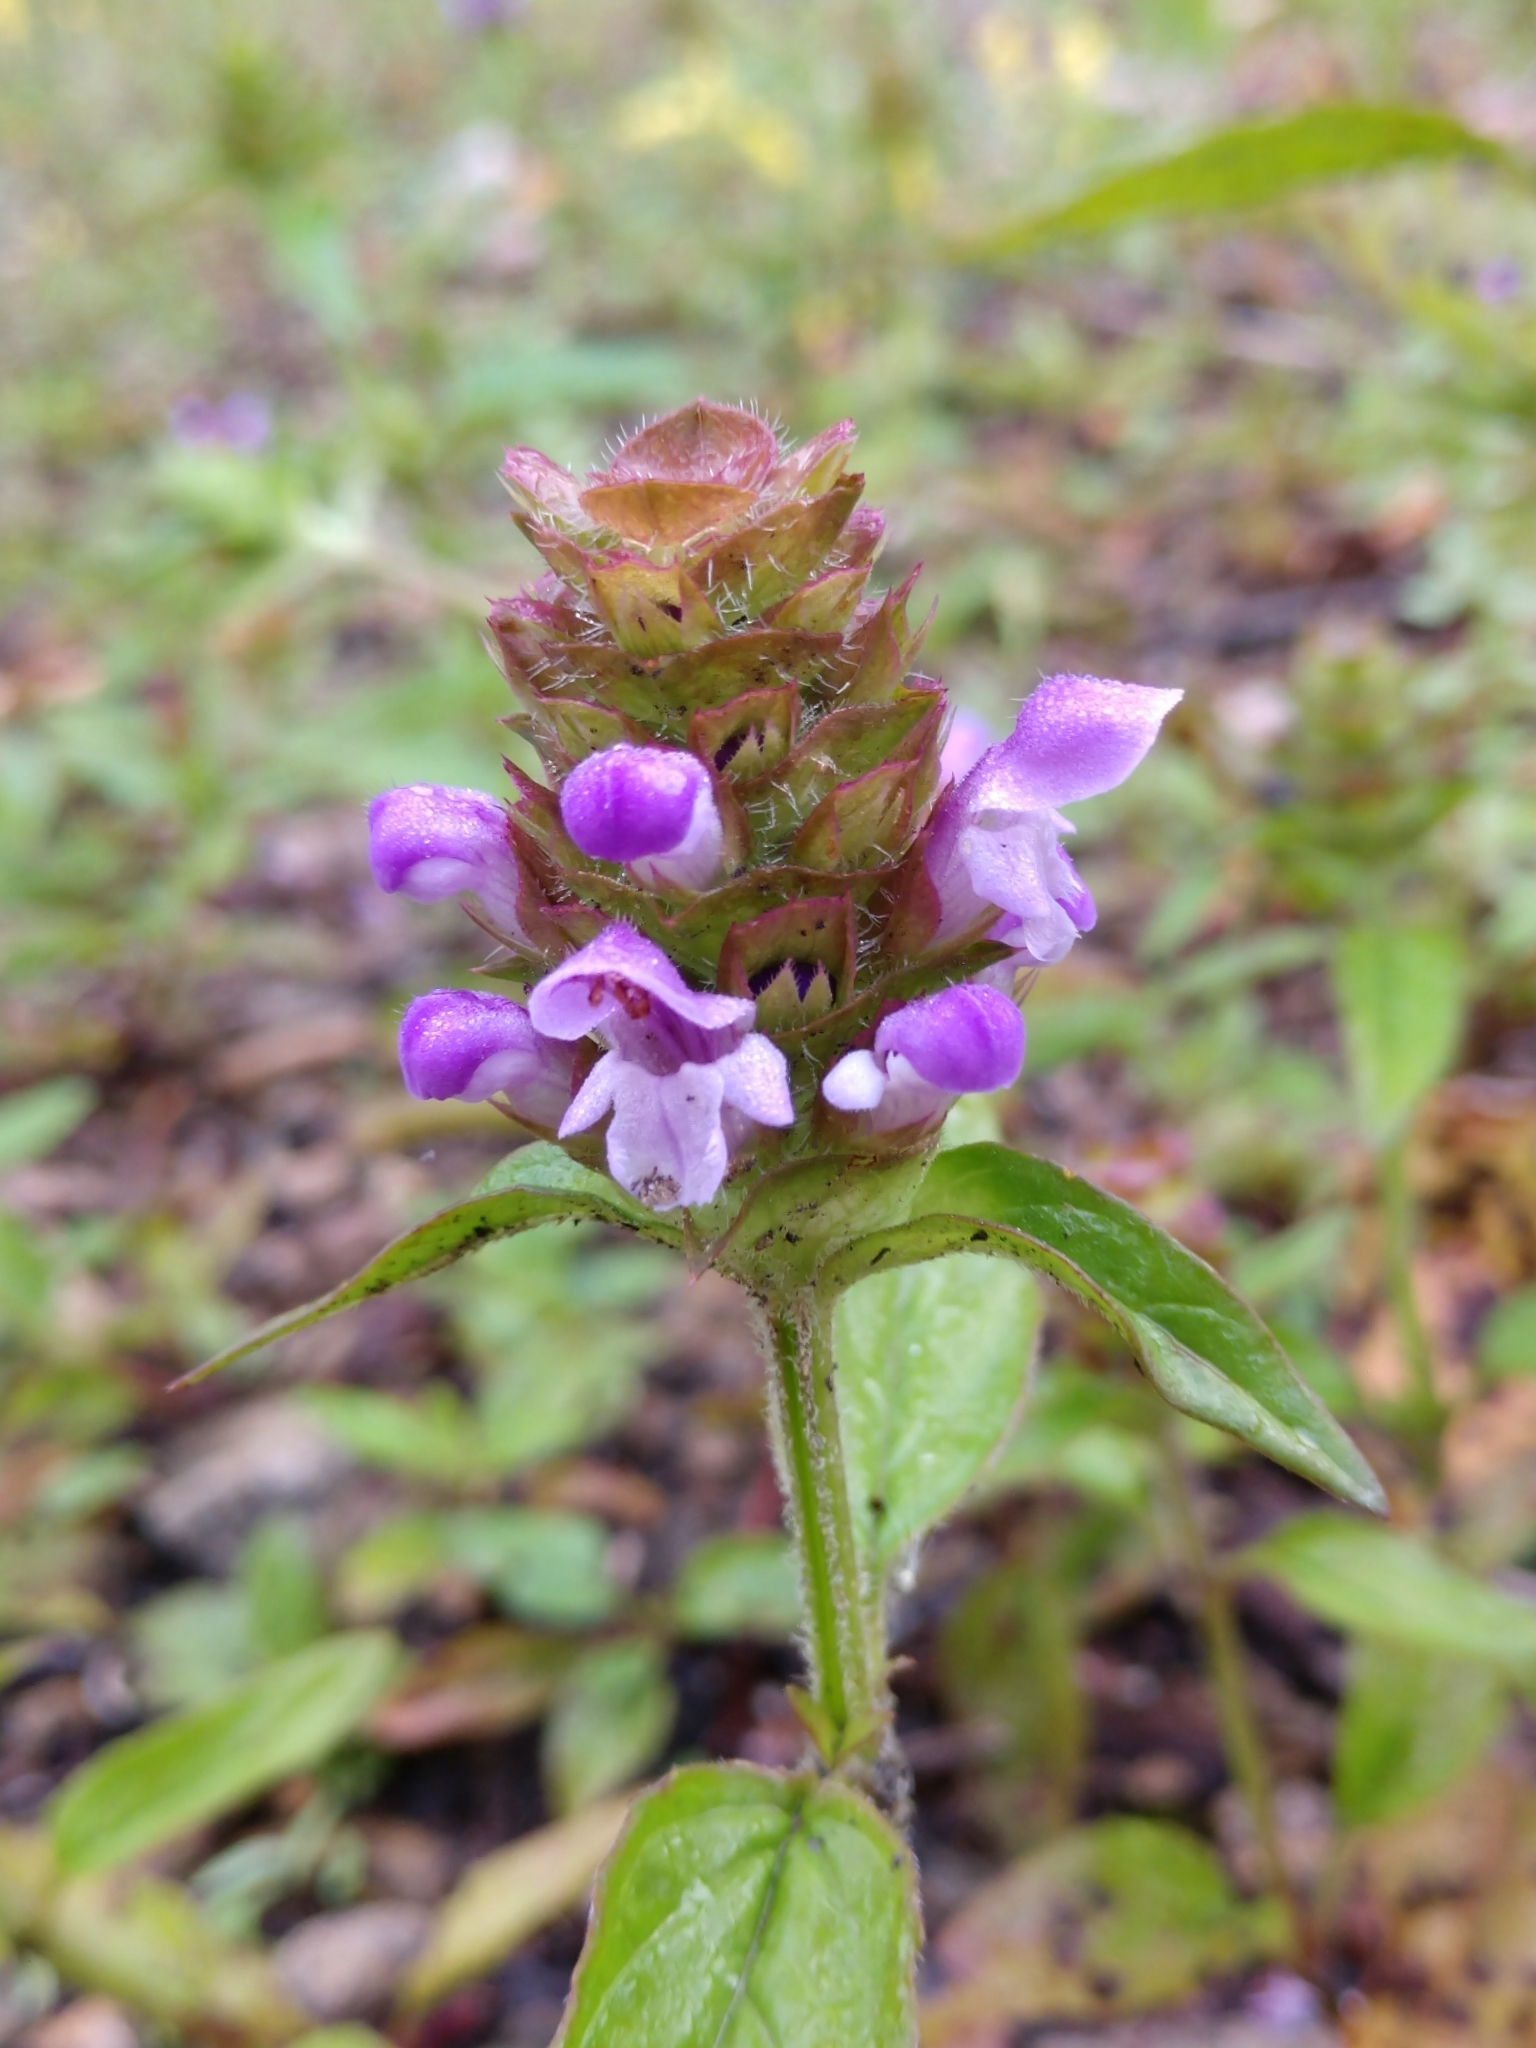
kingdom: Plantae
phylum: Tracheophyta
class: Magnoliopsida
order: Lamiales
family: Lamiaceae
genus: Prunella
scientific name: Prunella vulgaris
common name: Heal-all
